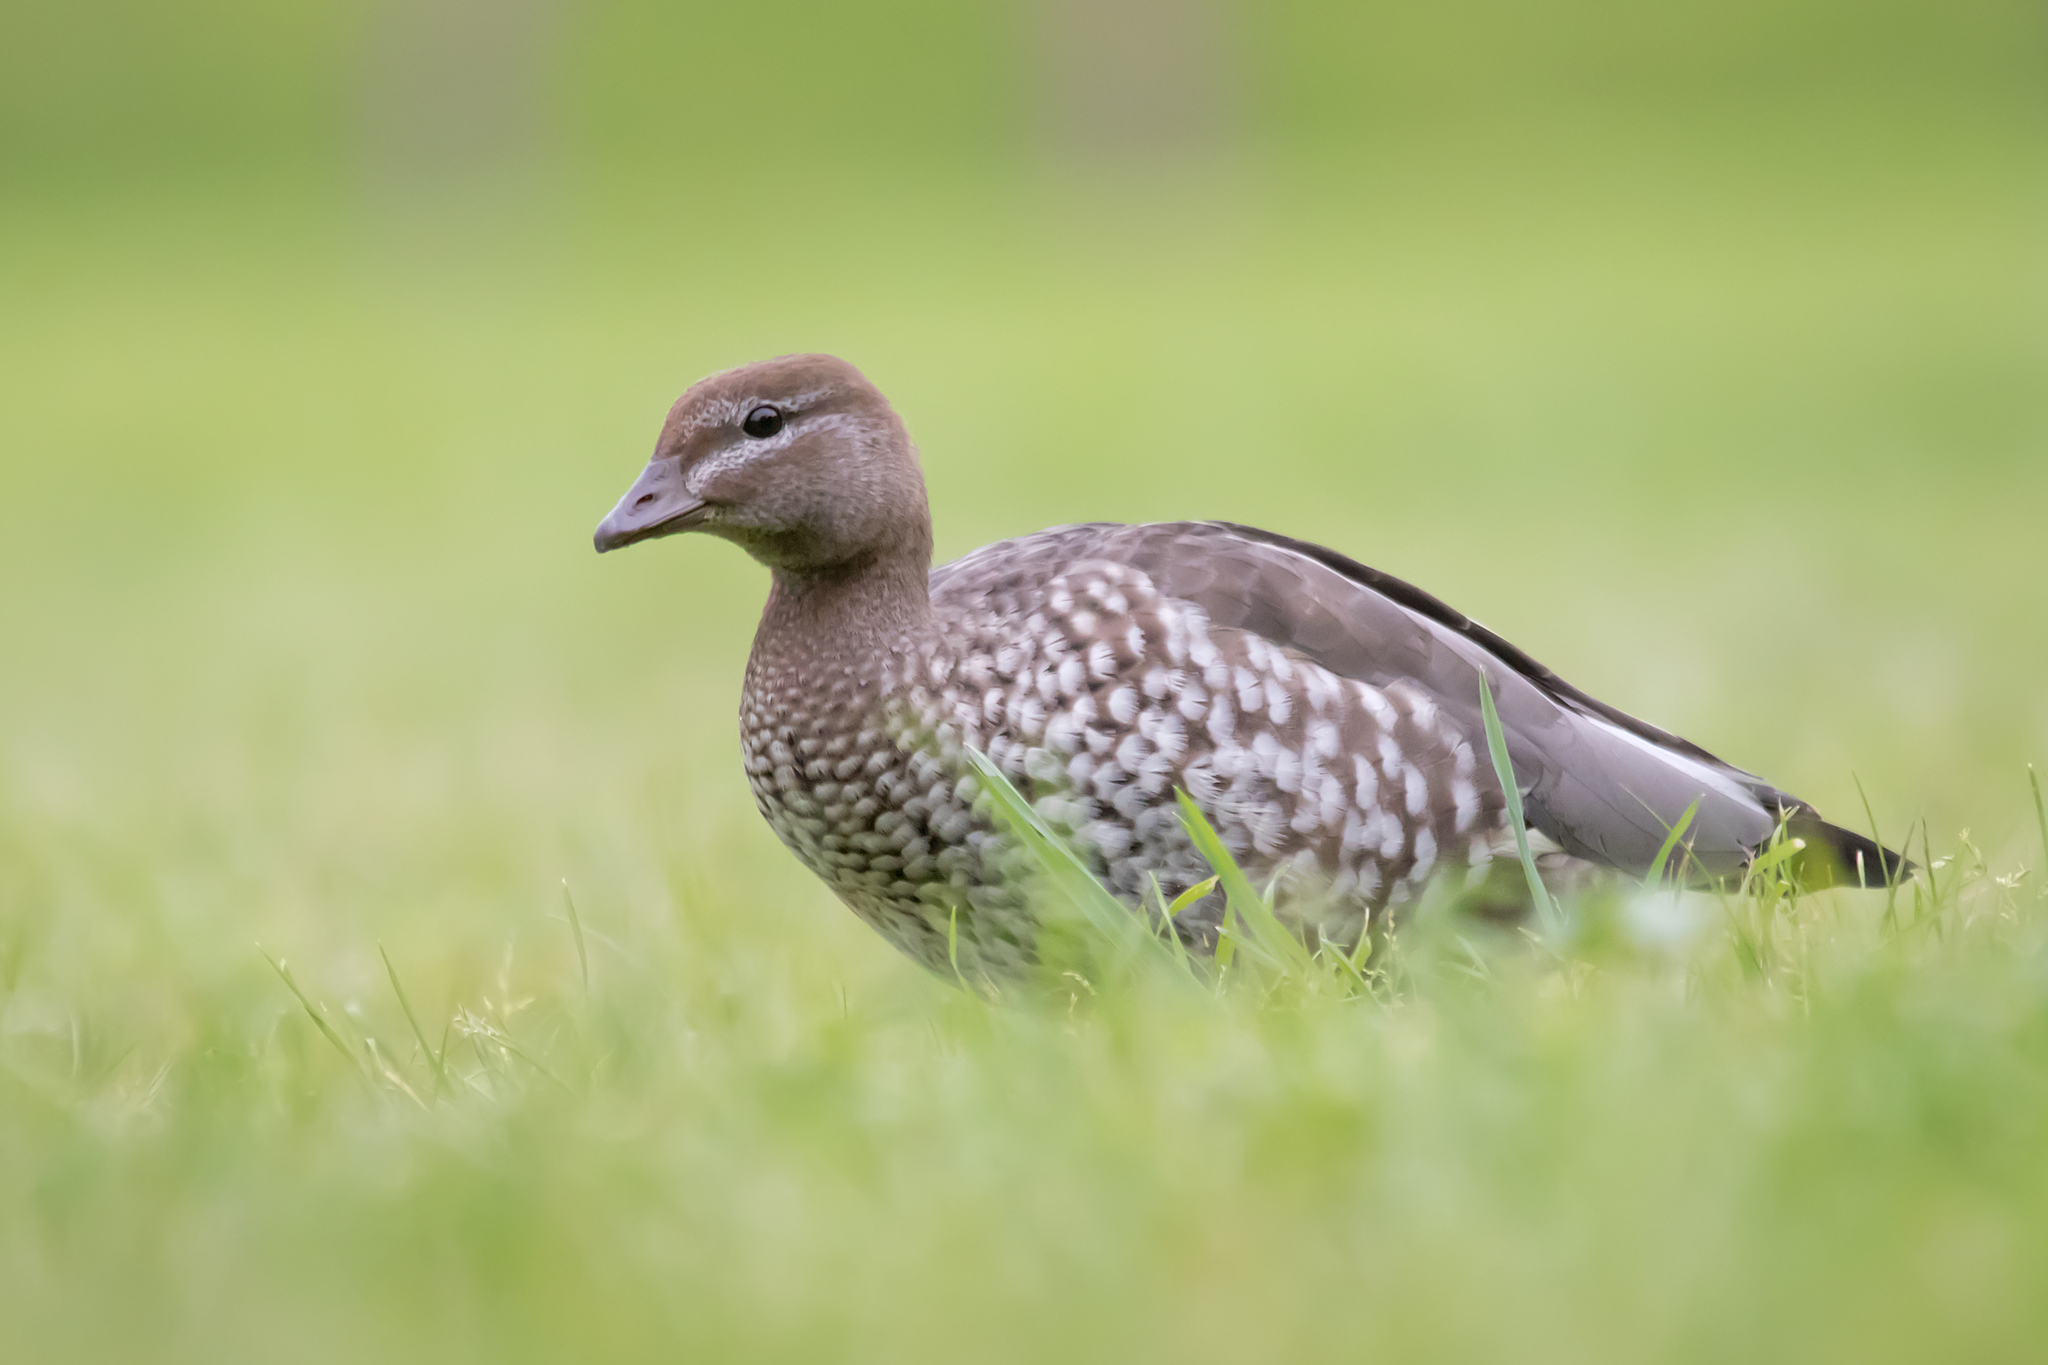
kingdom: Animalia
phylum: Chordata
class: Aves
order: Anseriformes
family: Anatidae
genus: Chenonetta
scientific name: Chenonetta jubata
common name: Maned duck
